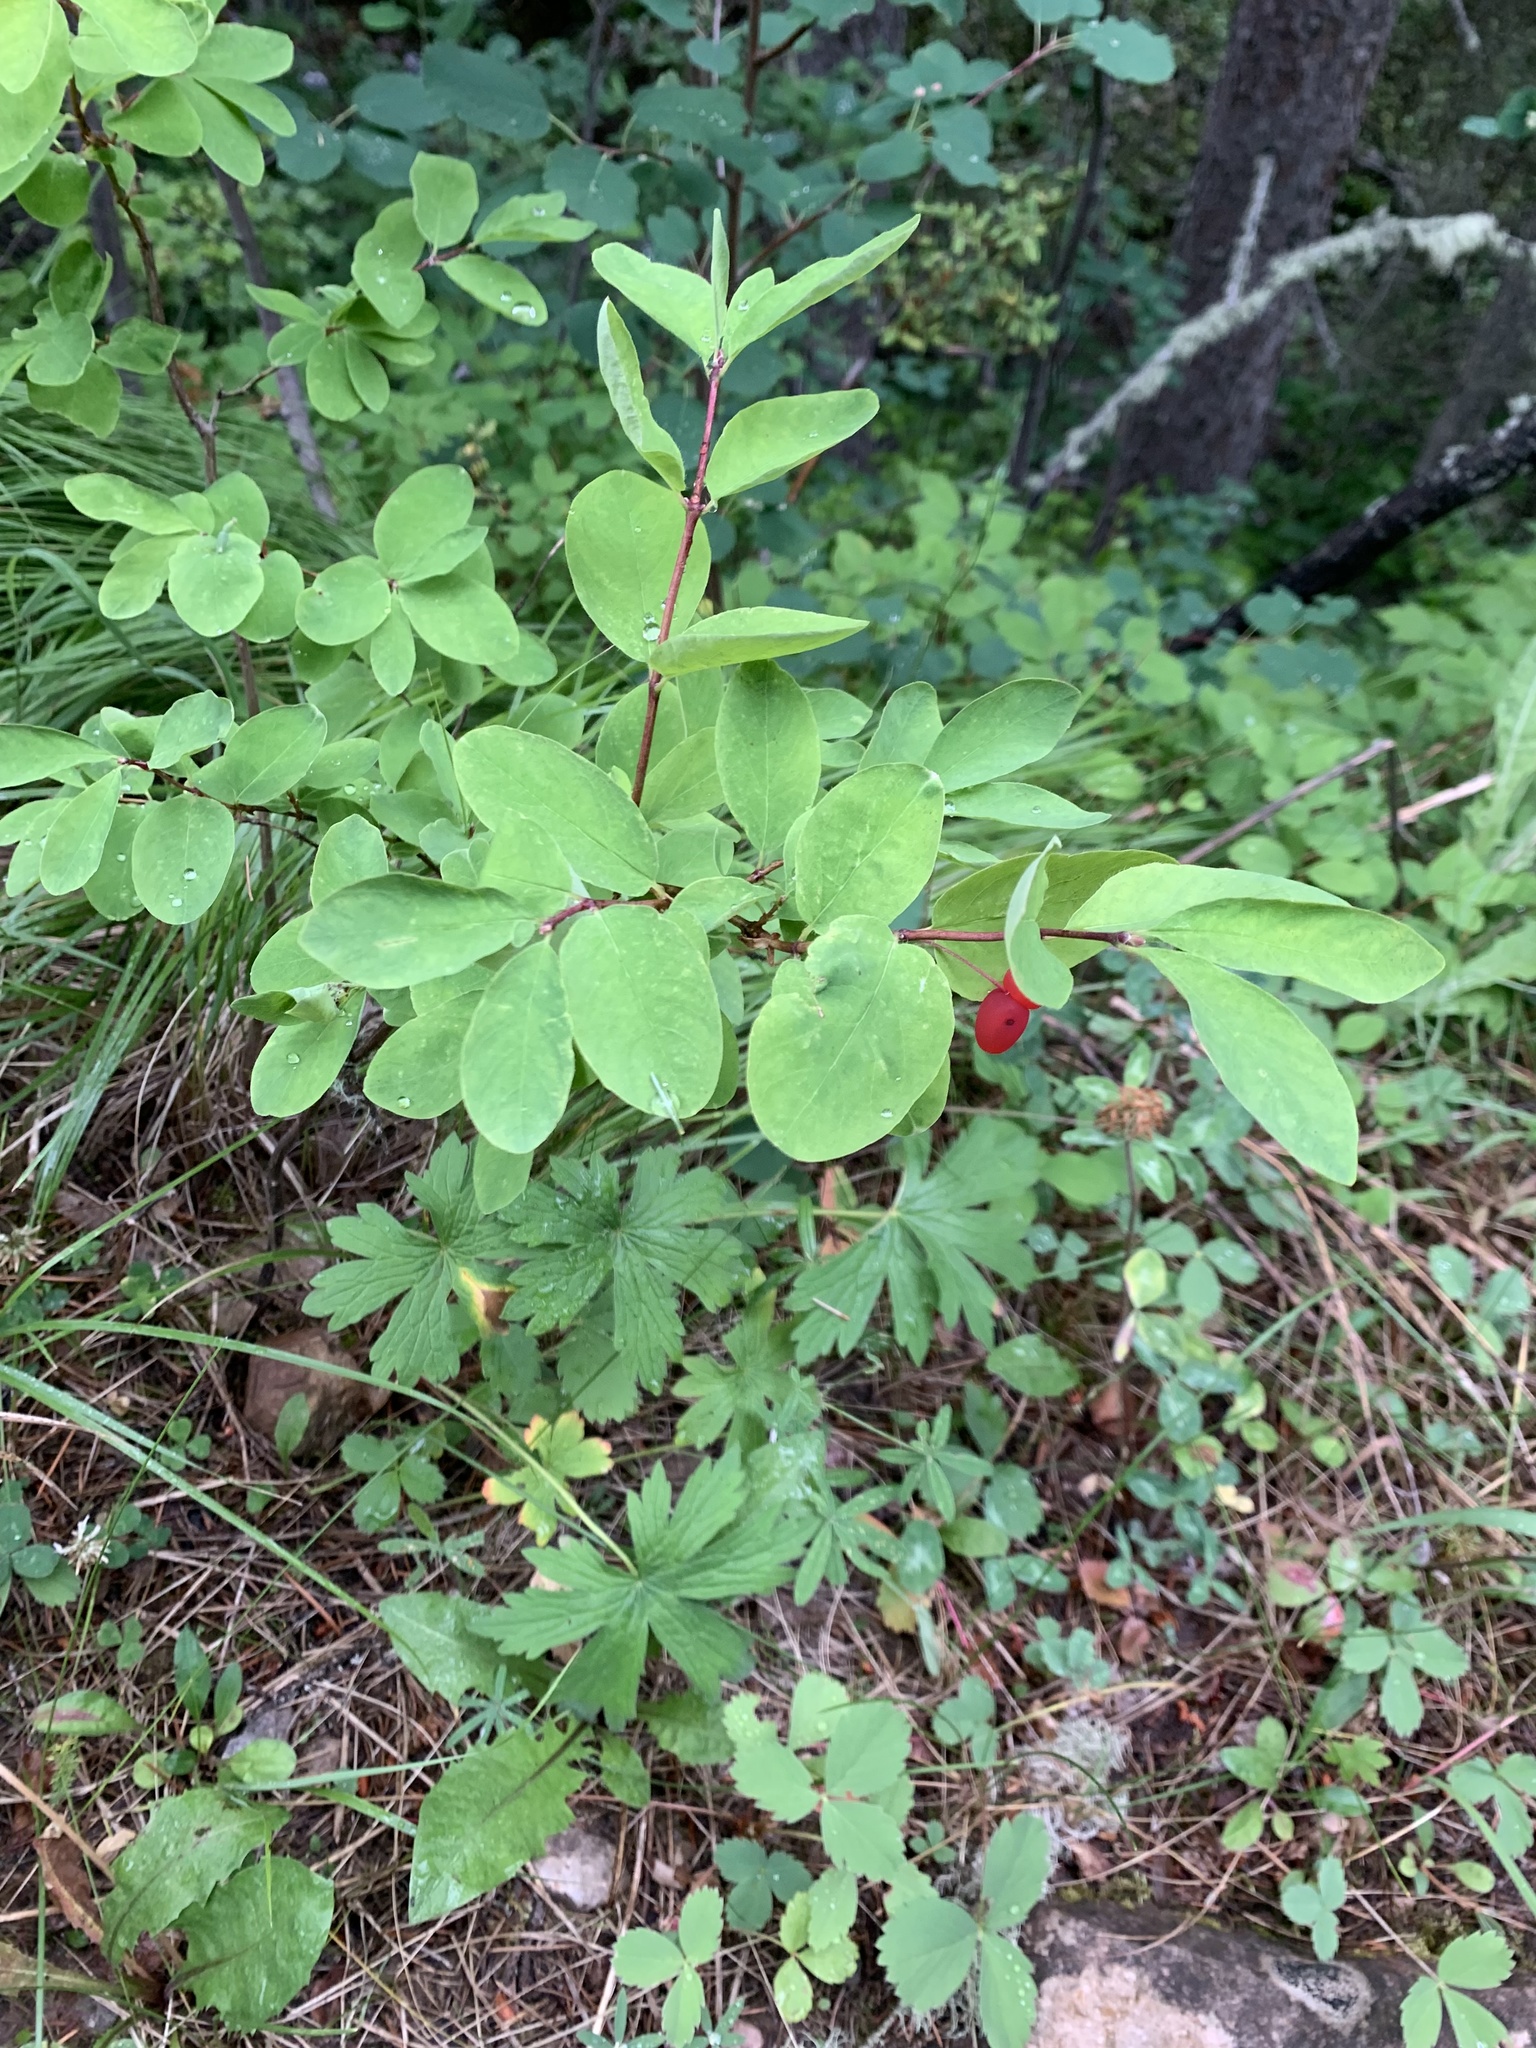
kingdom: Plantae
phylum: Tracheophyta
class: Magnoliopsida
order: Dipsacales
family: Caprifoliaceae
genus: Lonicera
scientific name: Lonicera utahensis
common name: Utah honeysuckle
